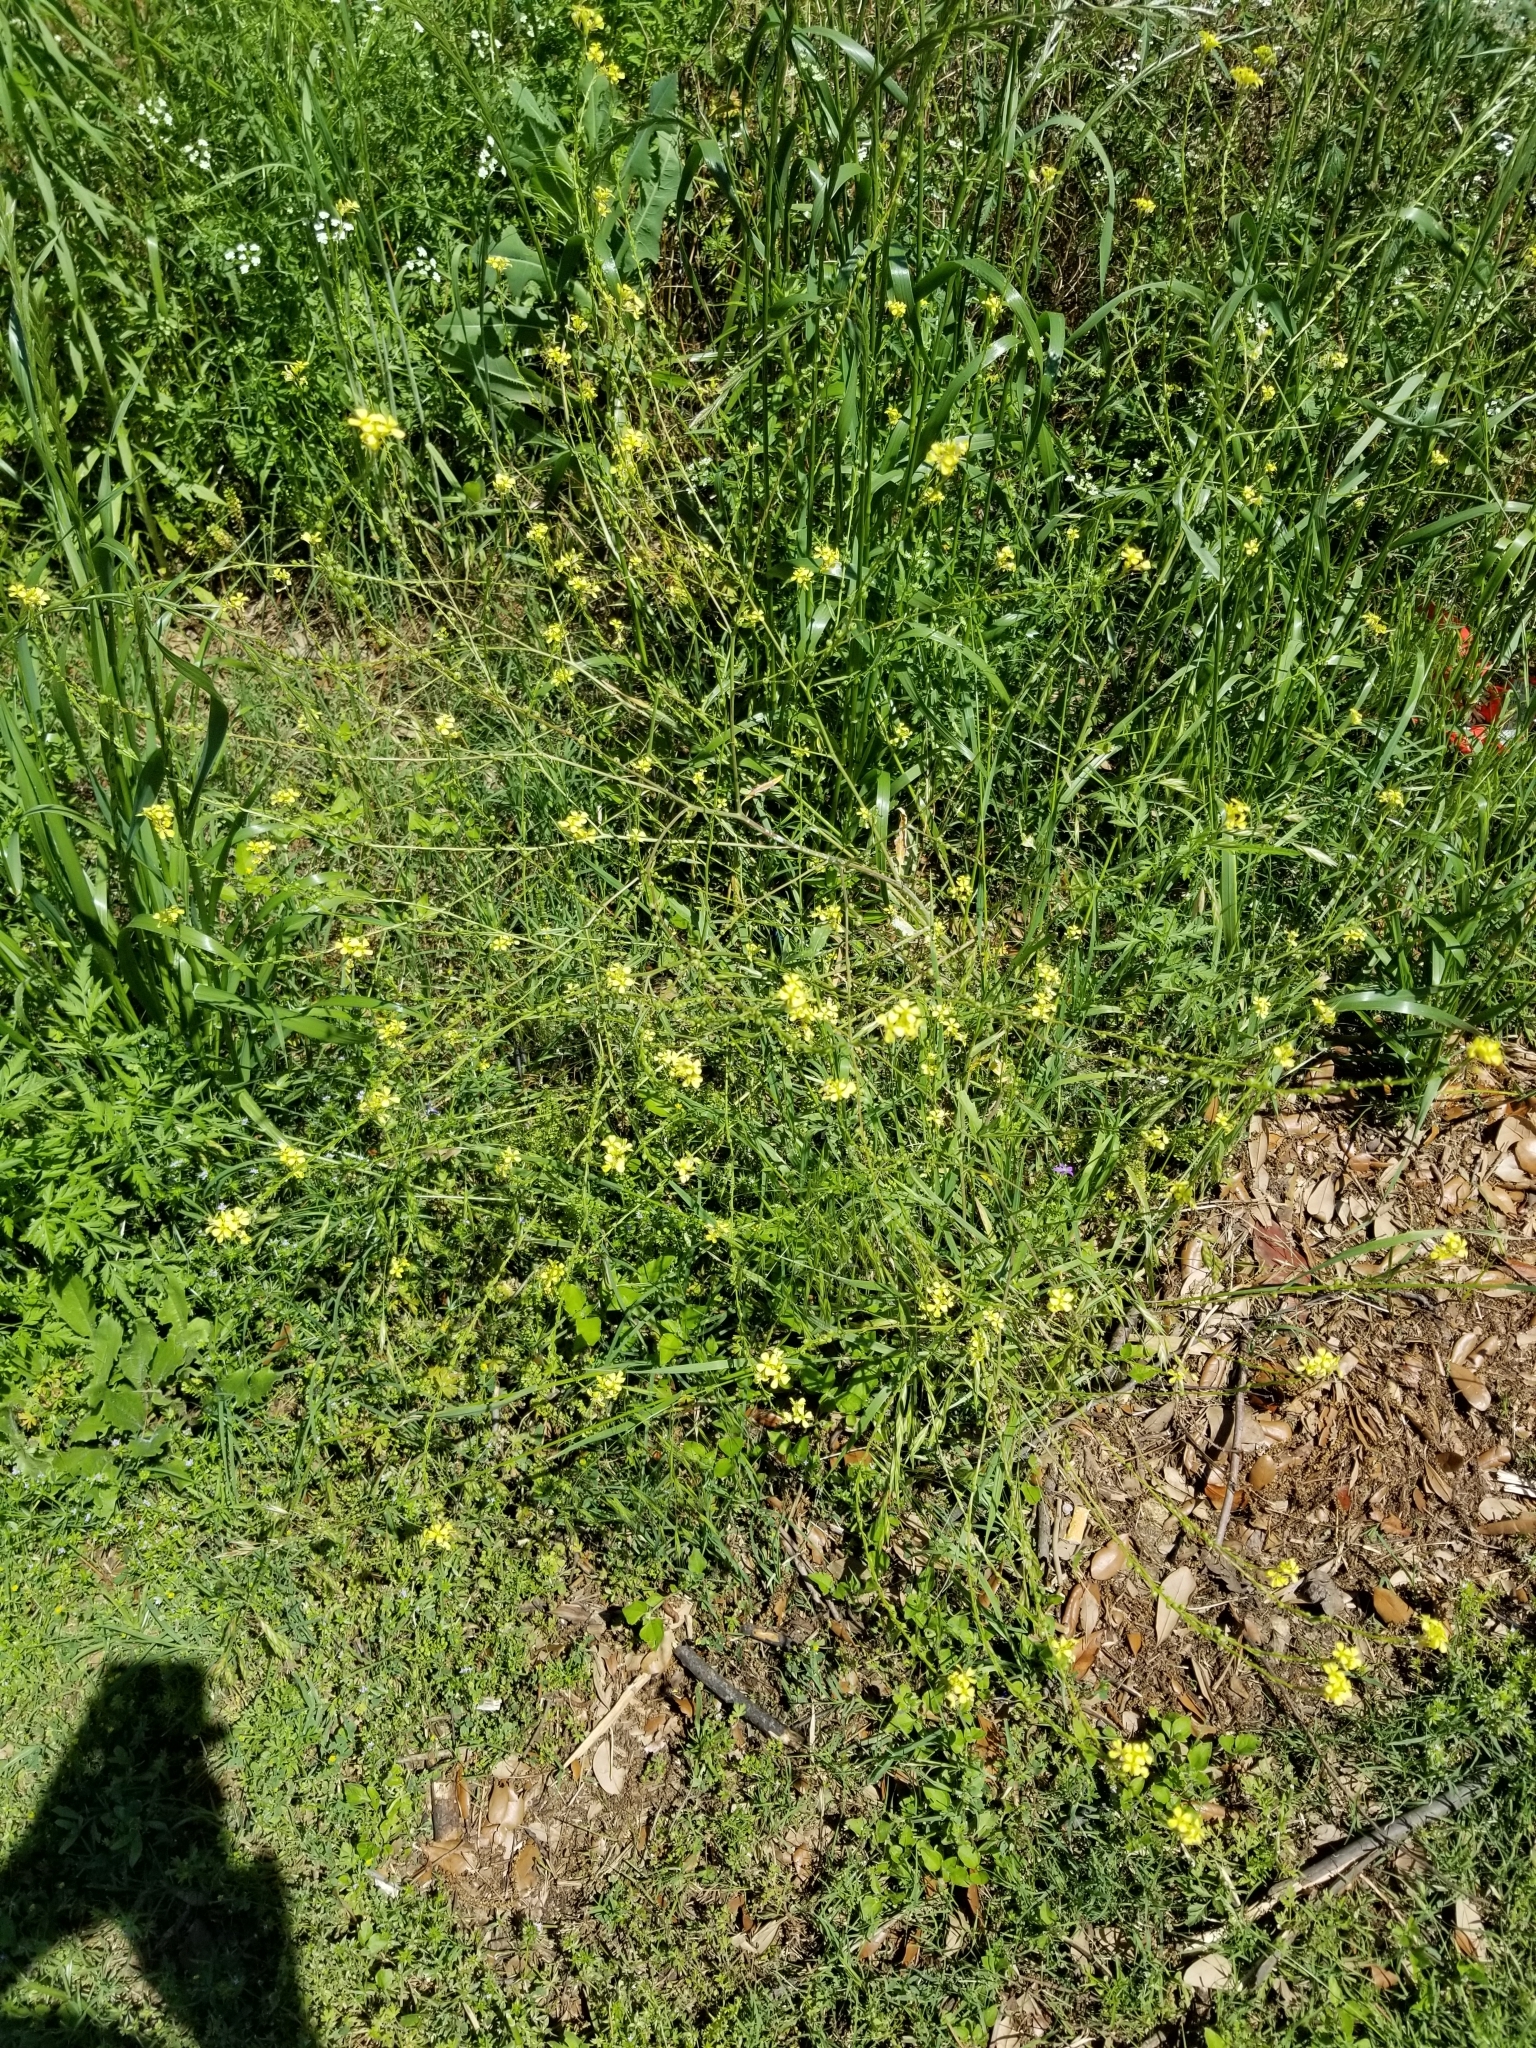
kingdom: Plantae
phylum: Tracheophyta
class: Magnoliopsida
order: Brassicales
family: Brassicaceae
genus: Rapistrum
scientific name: Rapistrum rugosum
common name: Annual bastardcabbage
